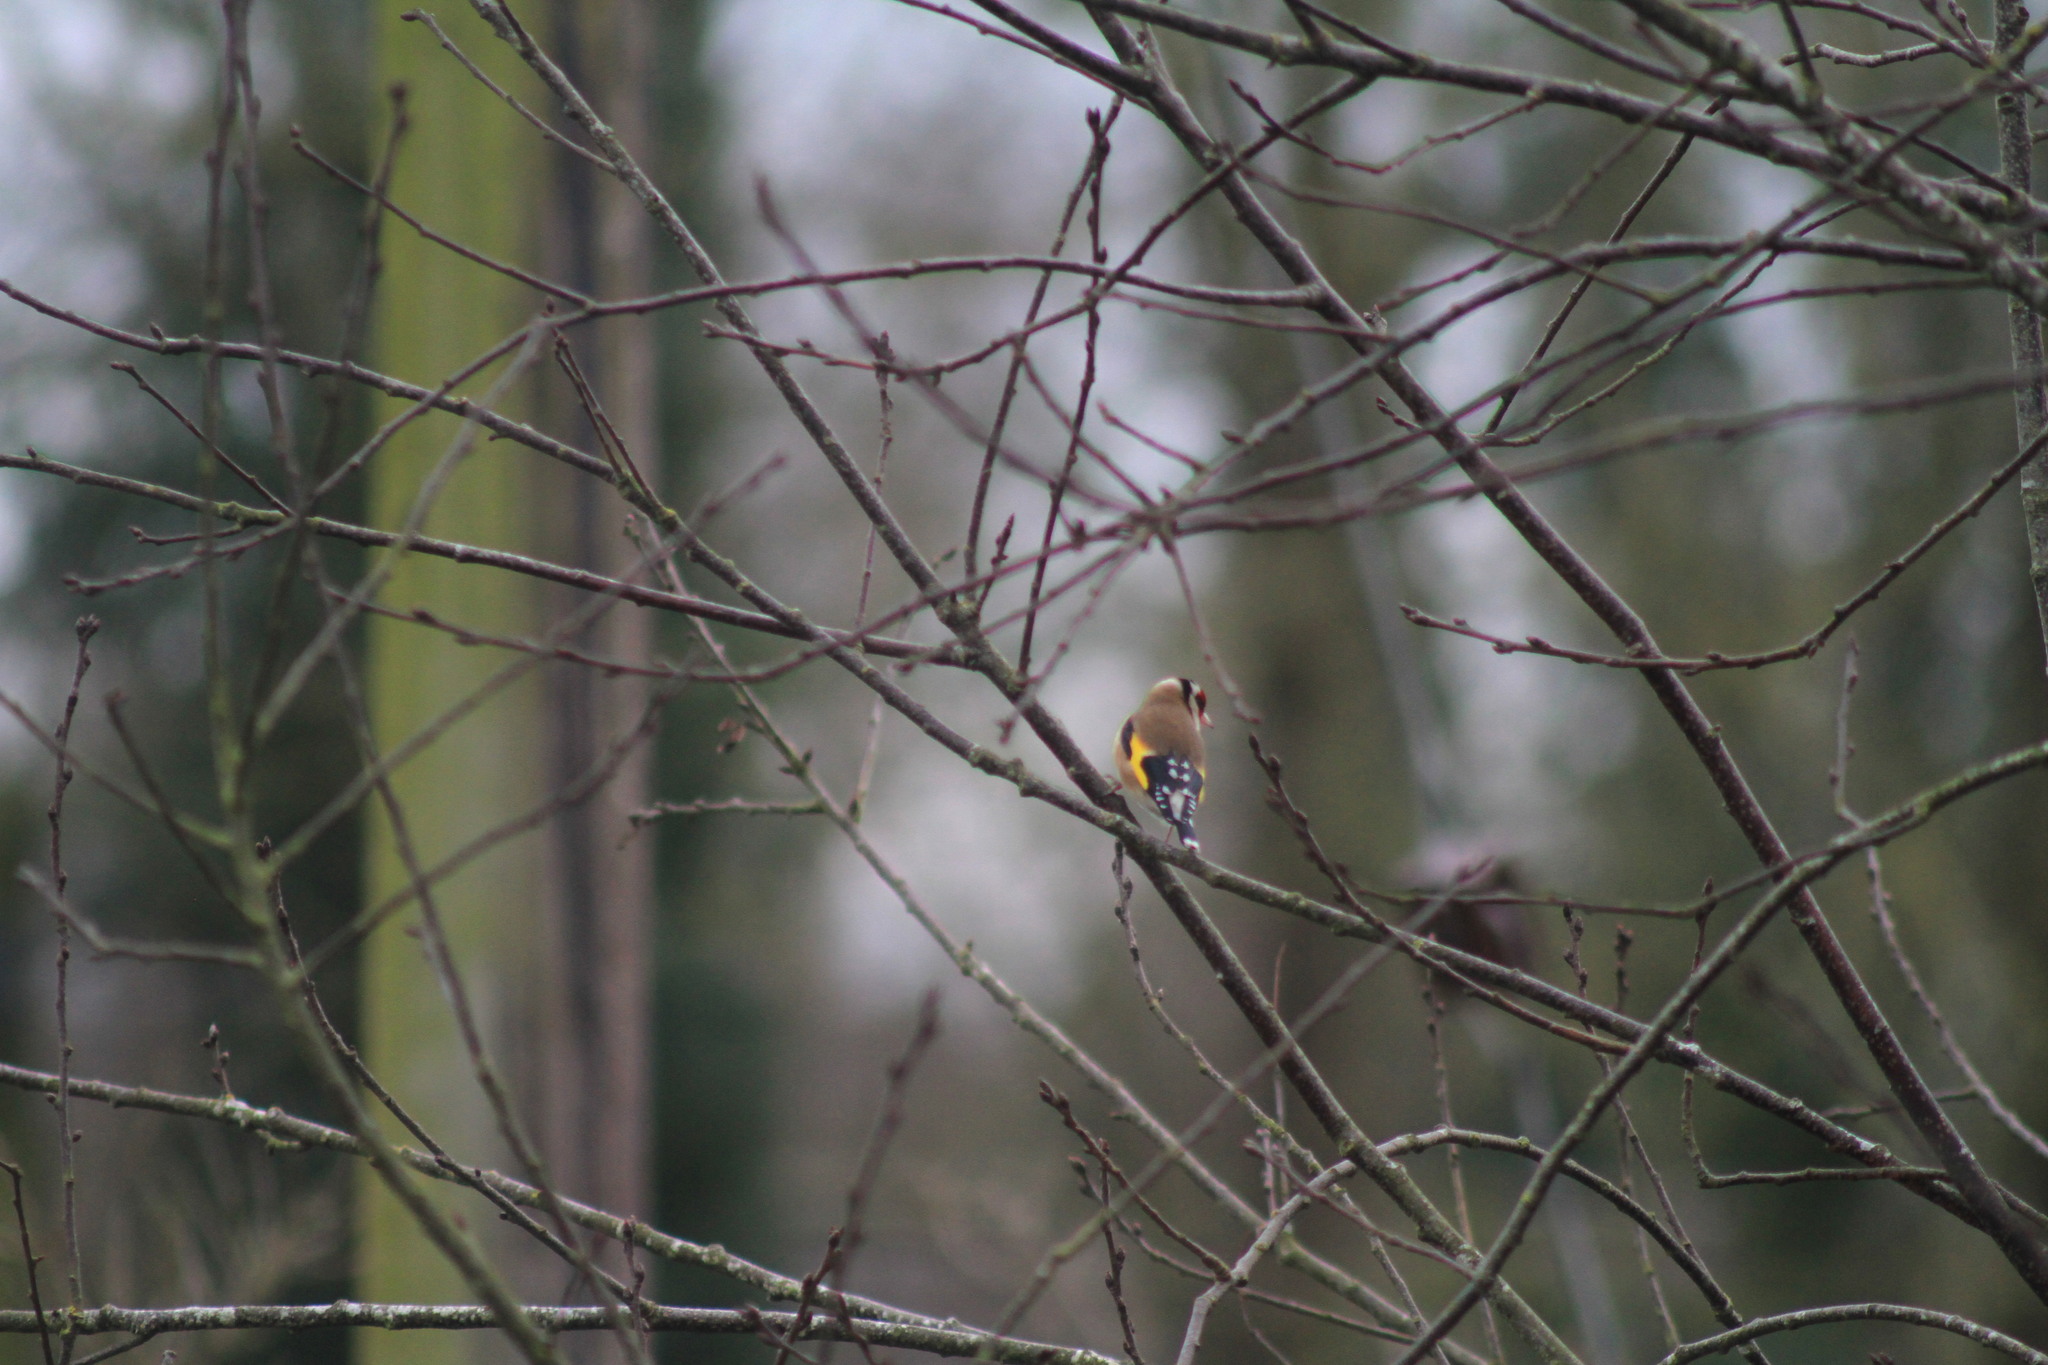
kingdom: Animalia
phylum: Chordata
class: Aves
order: Passeriformes
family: Fringillidae
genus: Carduelis
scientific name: Carduelis carduelis
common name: European goldfinch
